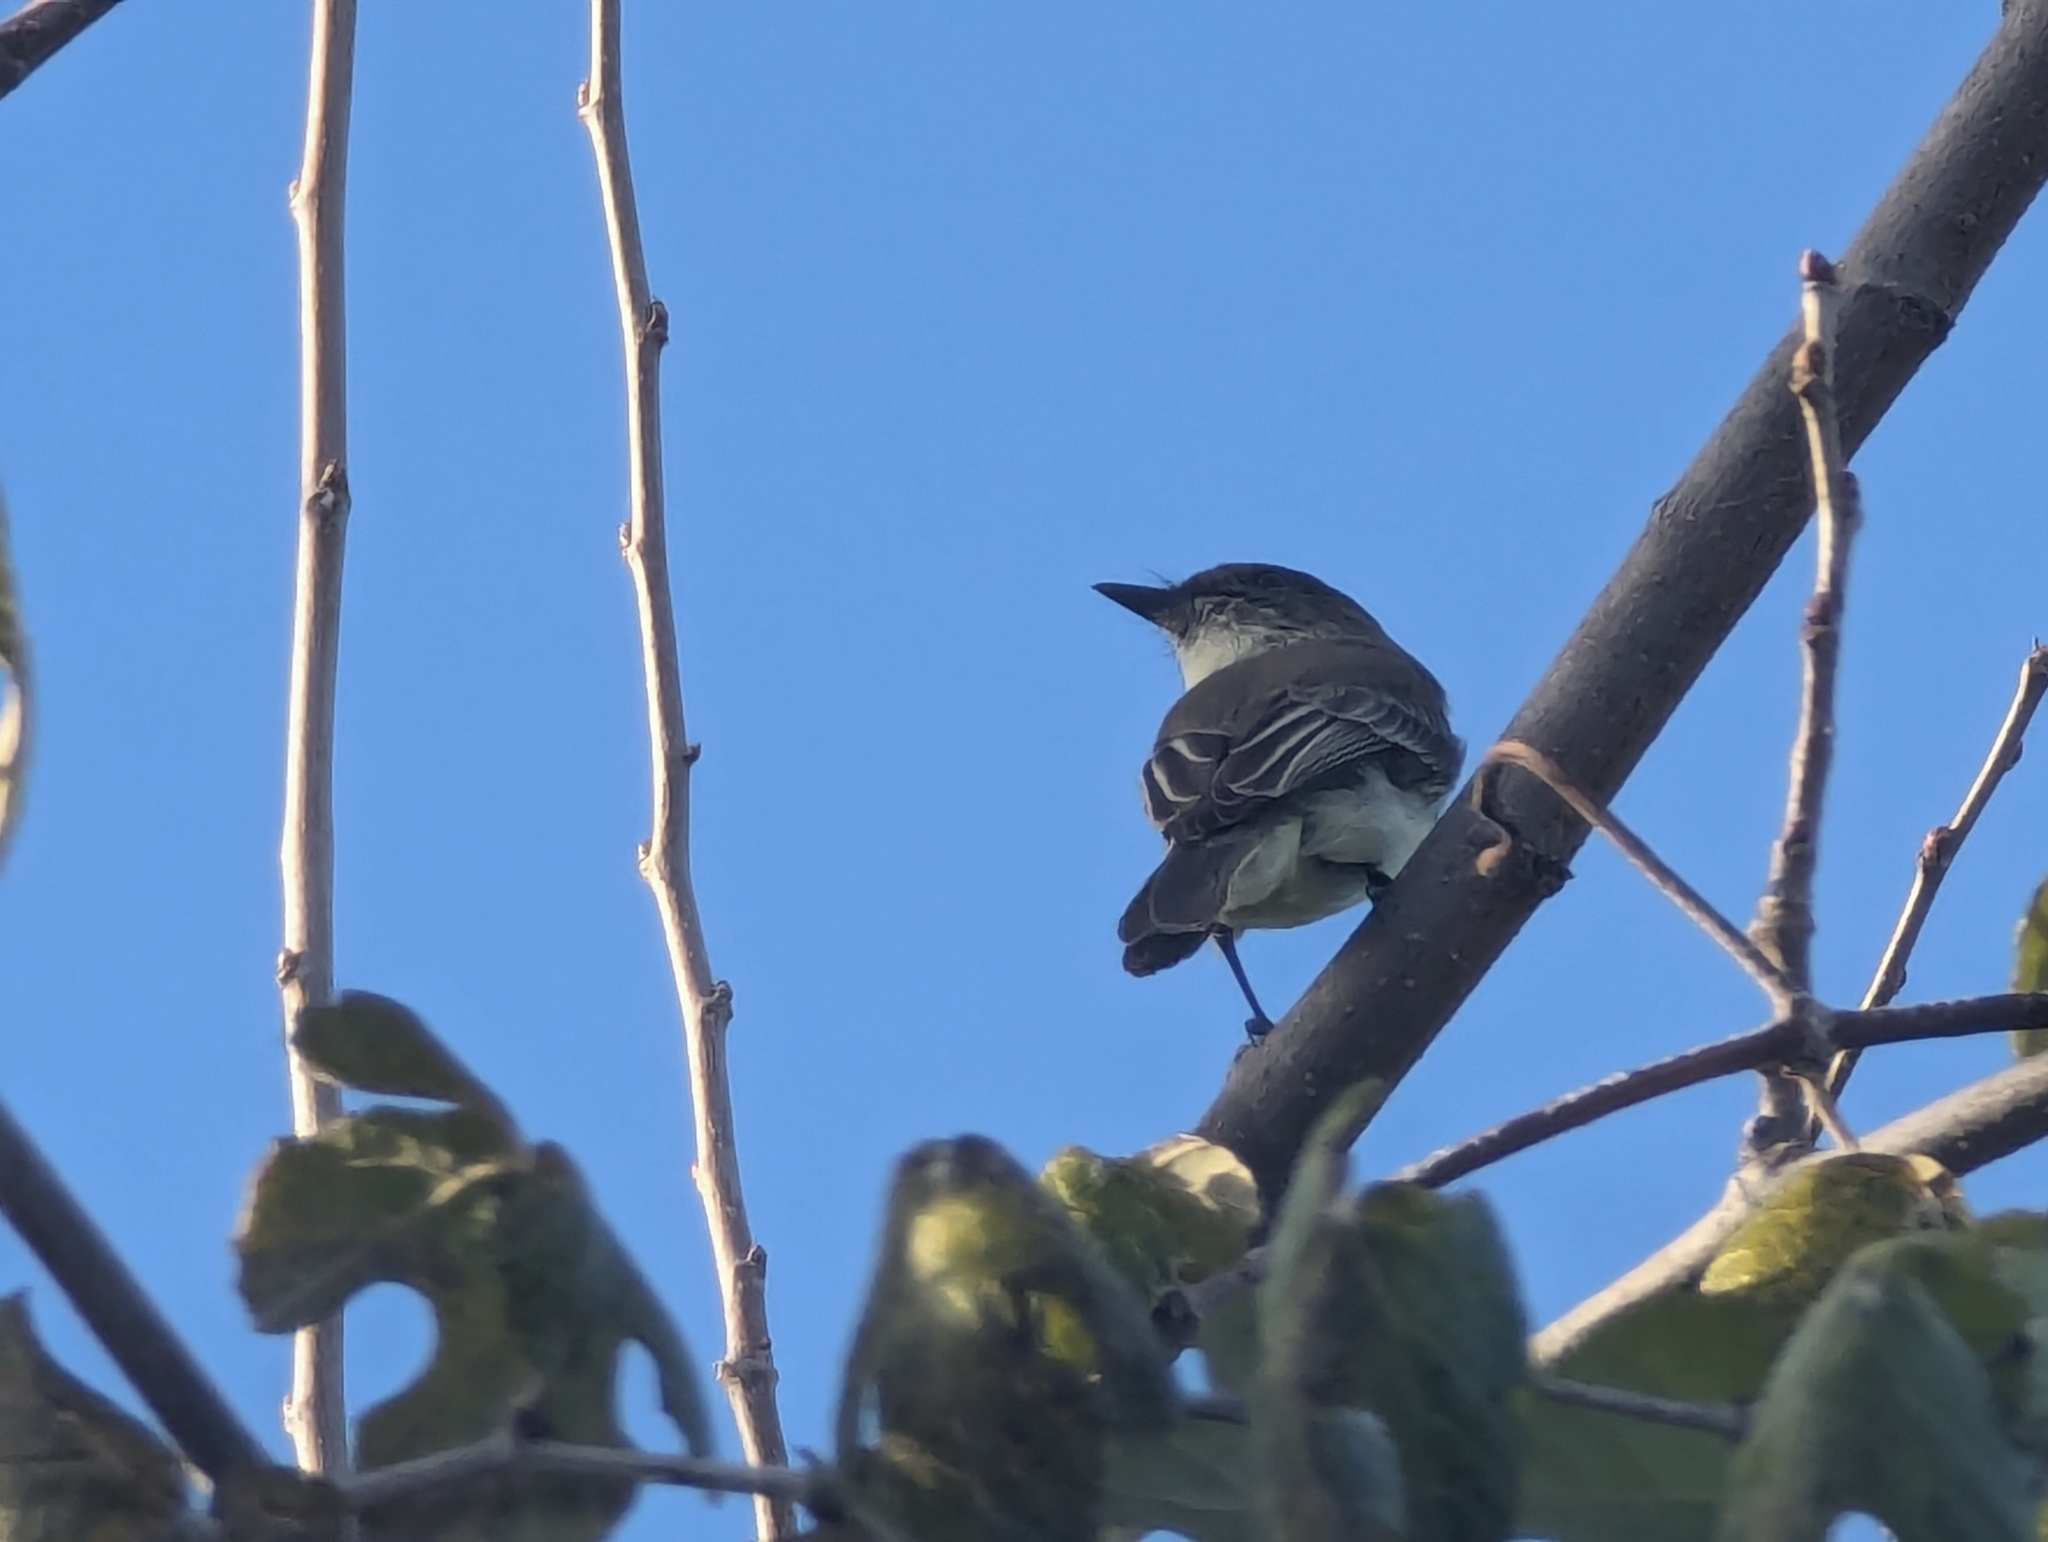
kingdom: Animalia
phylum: Chordata
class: Aves
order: Passeriformes
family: Tyrannidae
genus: Sayornis
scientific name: Sayornis phoebe
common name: Eastern phoebe
